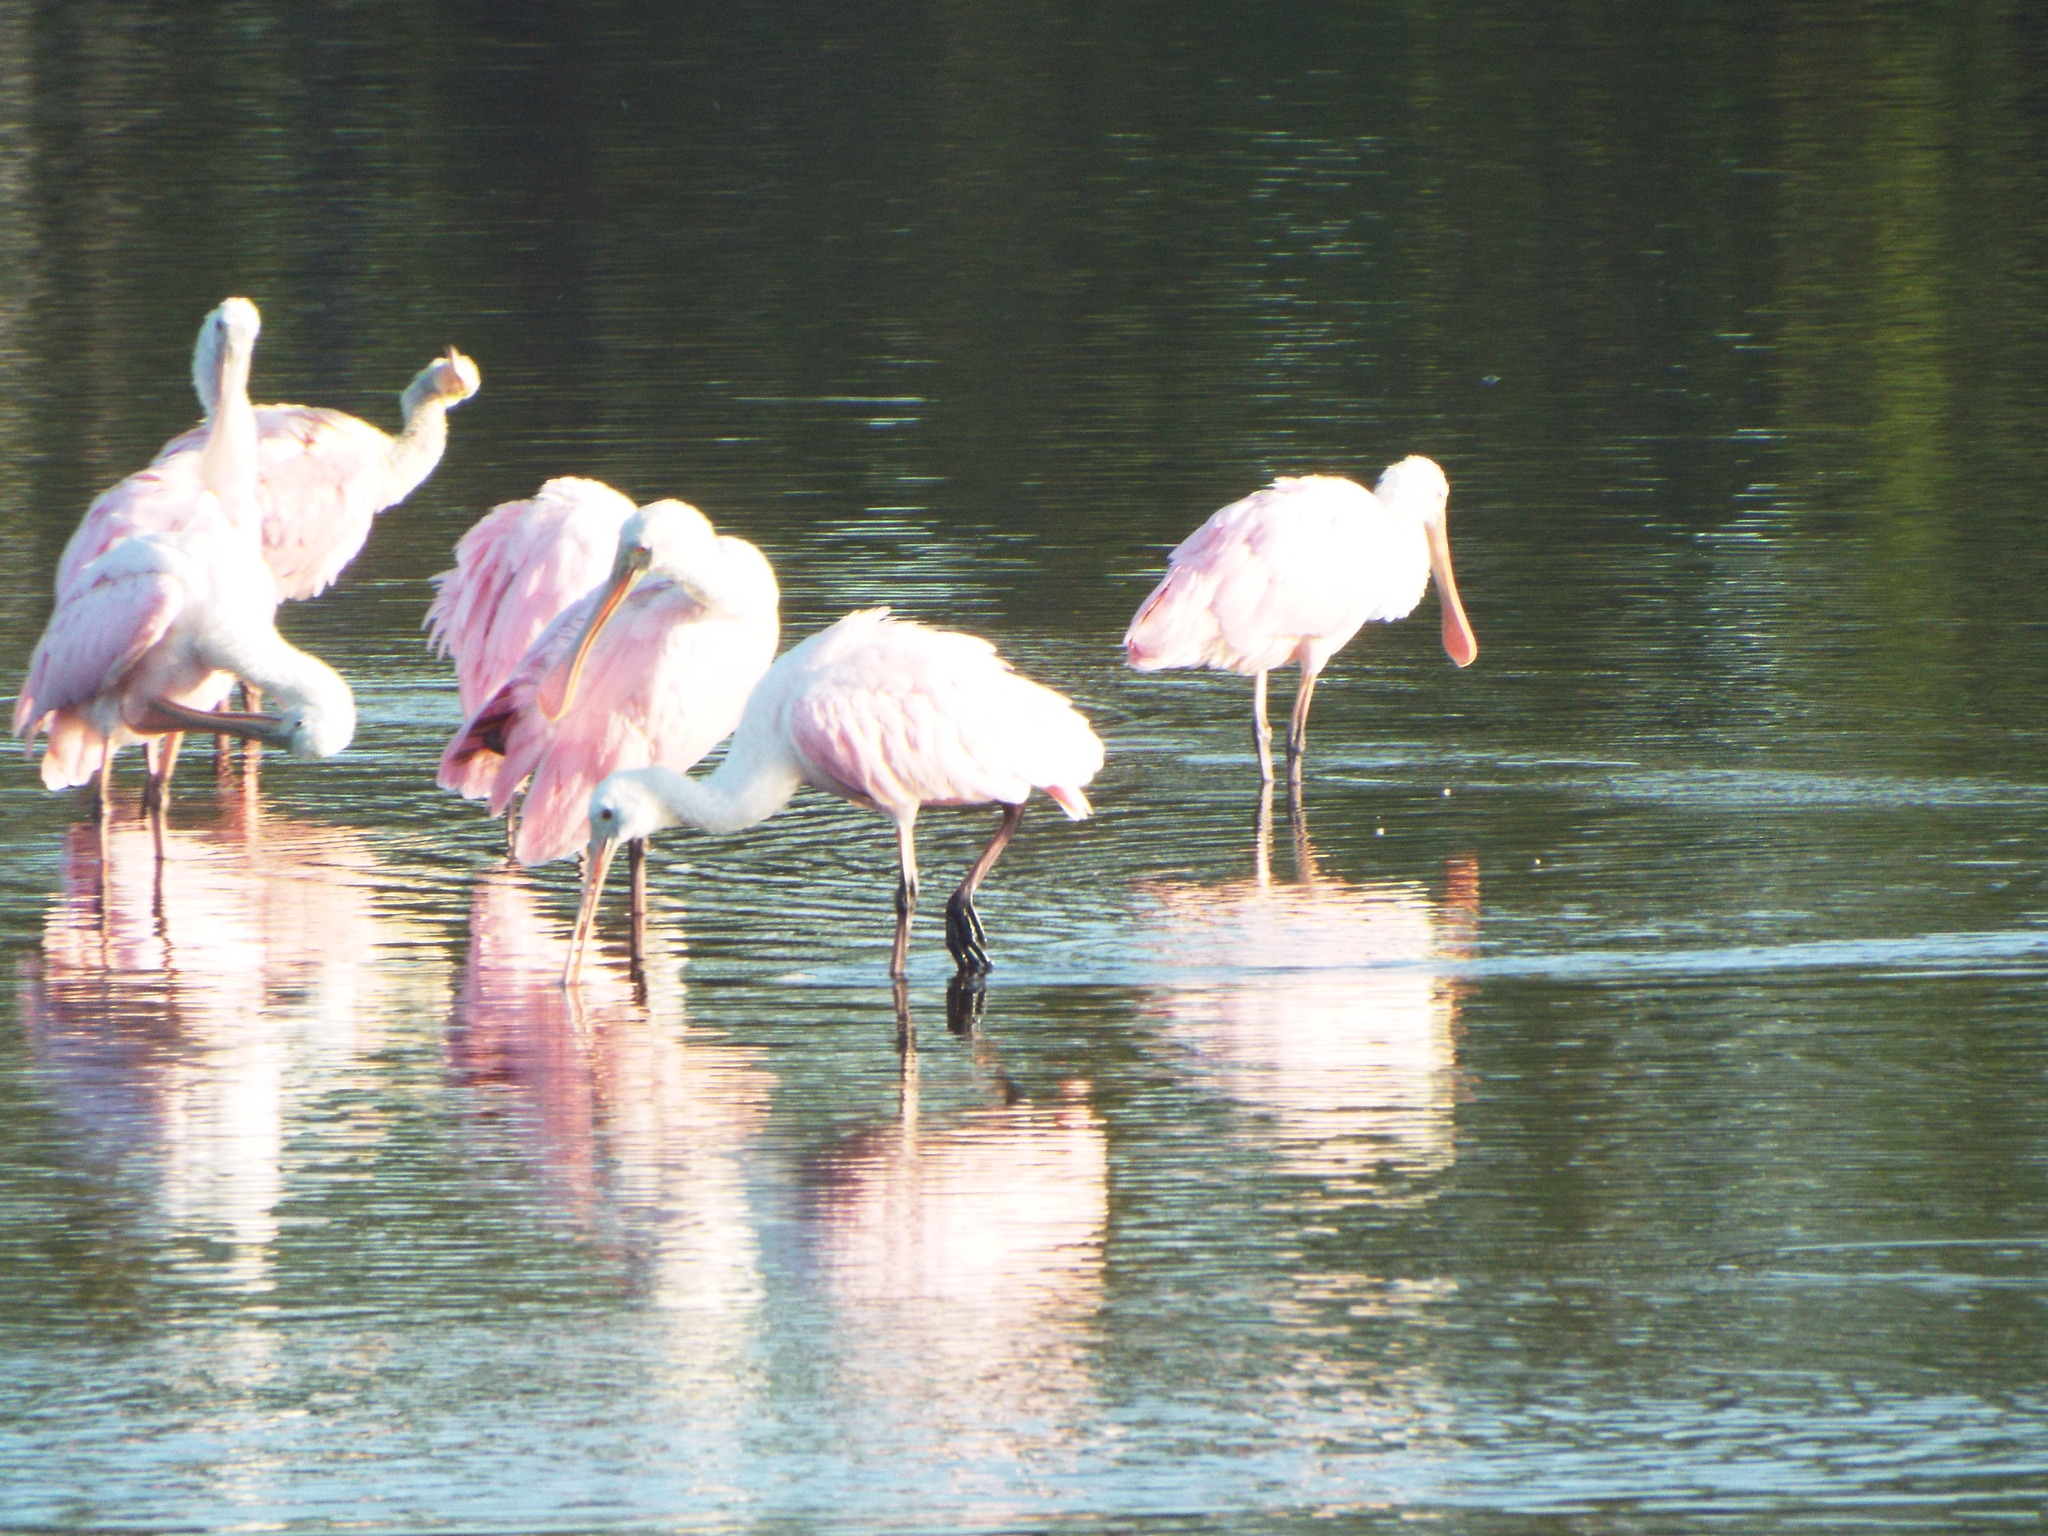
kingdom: Animalia
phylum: Chordata
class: Aves
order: Pelecaniformes
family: Threskiornithidae
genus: Platalea
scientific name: Platalea ajaja
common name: Roseate spoonbill
